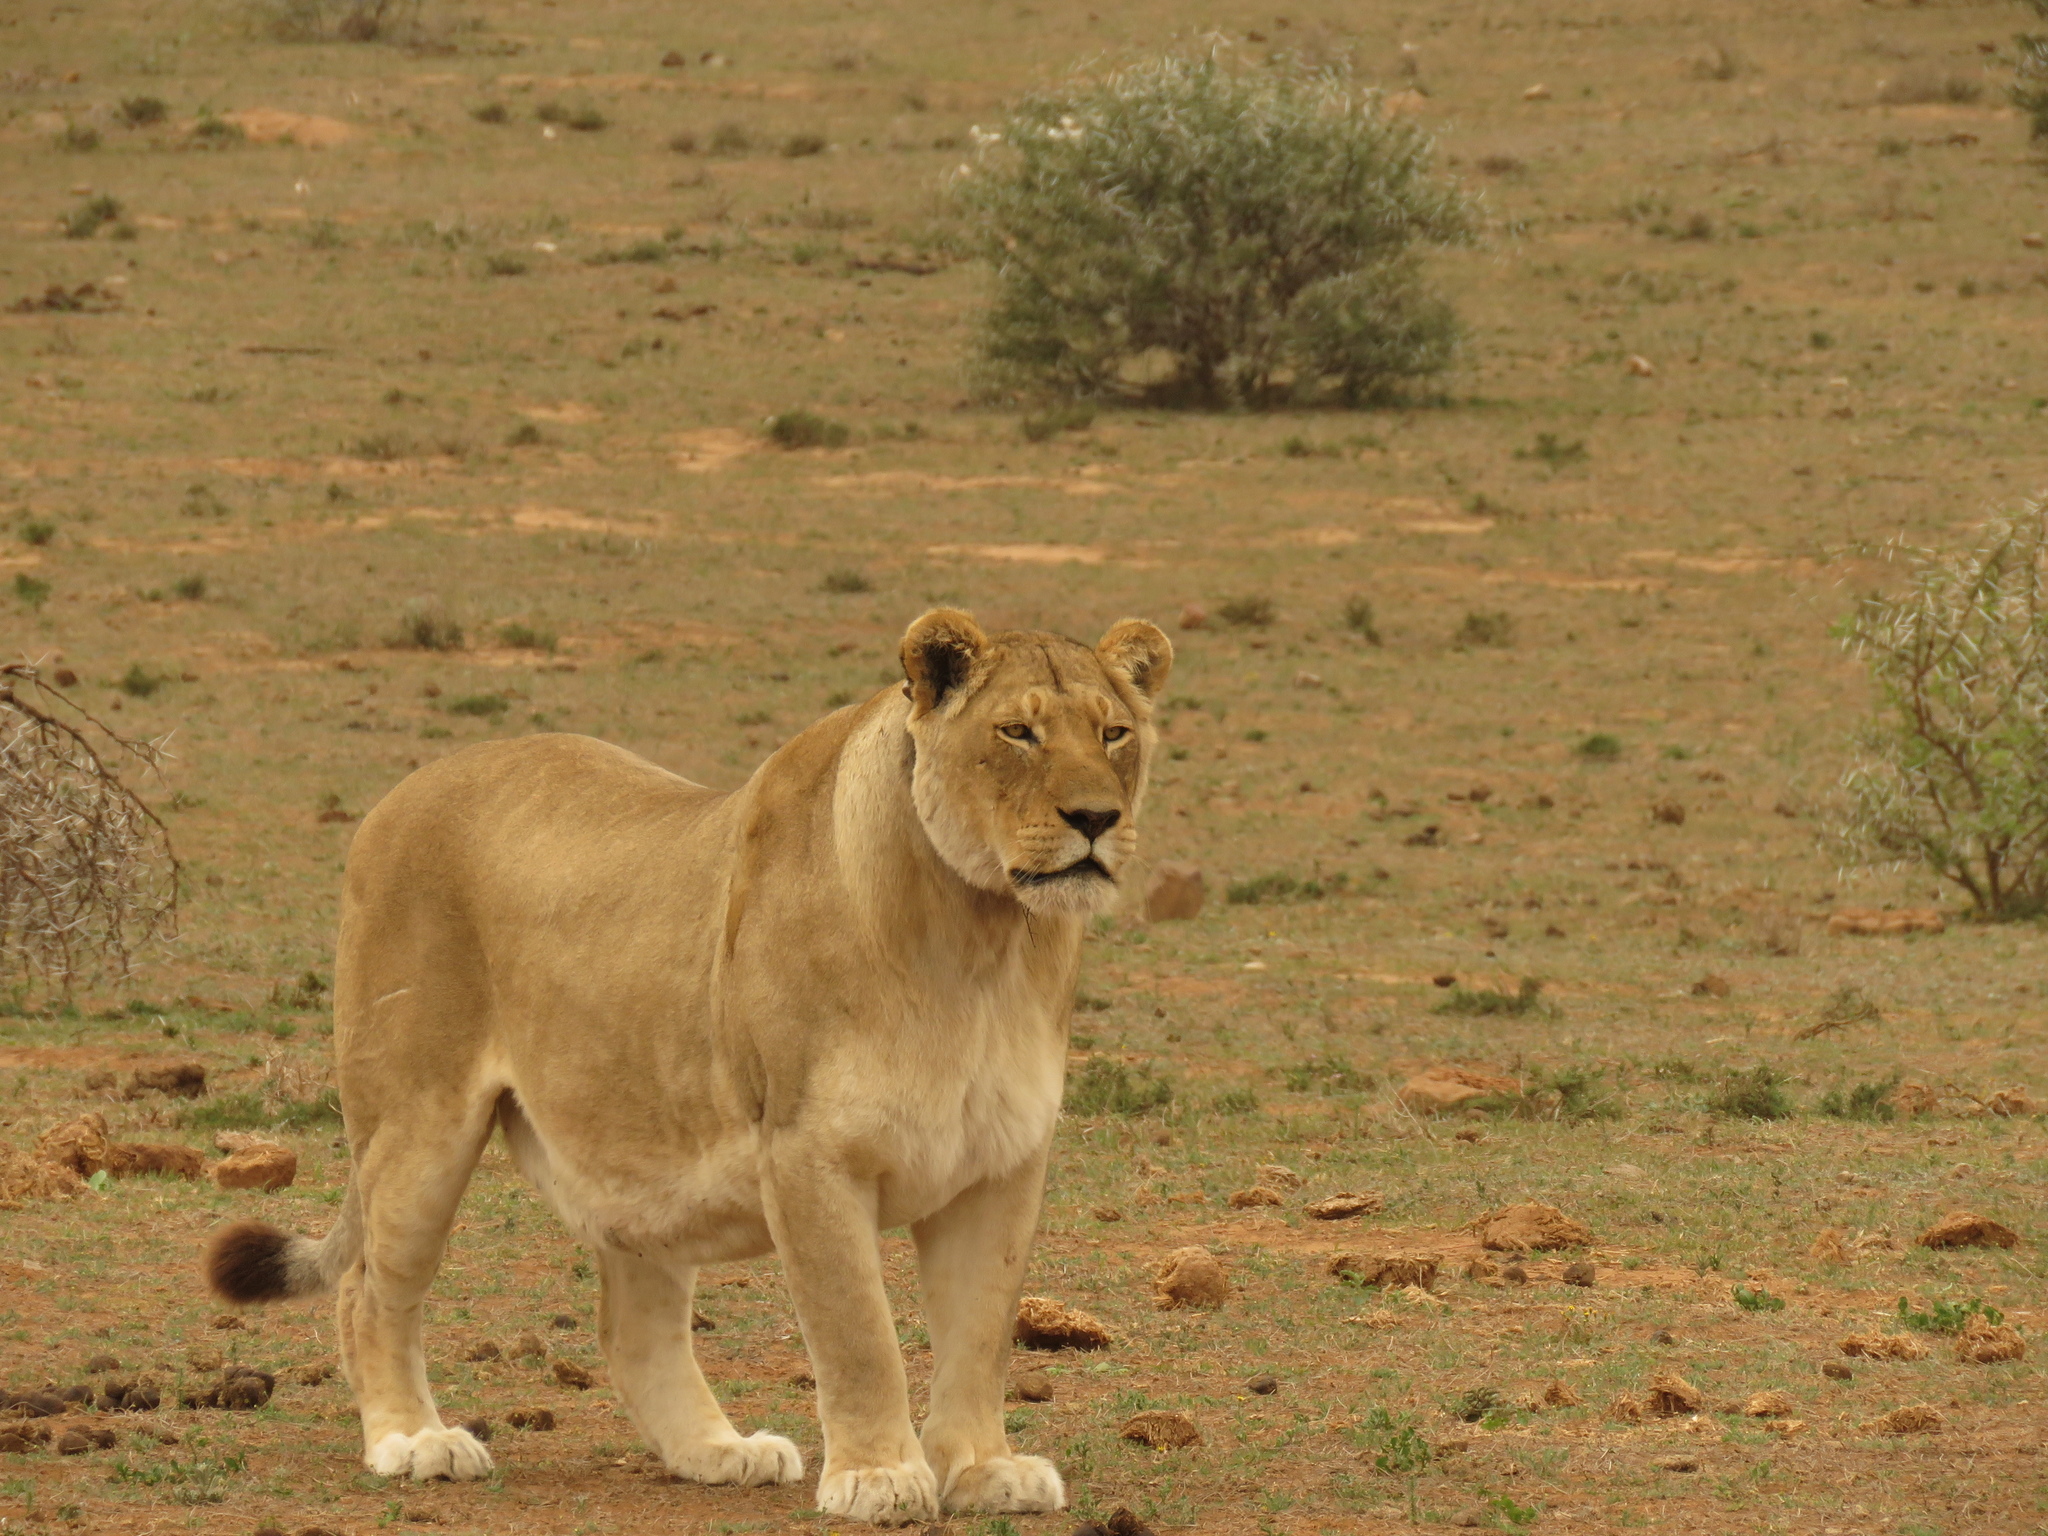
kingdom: Animalia
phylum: Chordata
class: Mammalia
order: Carnivora
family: Felidae
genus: Panthera
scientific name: Panthera leo
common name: Lion
